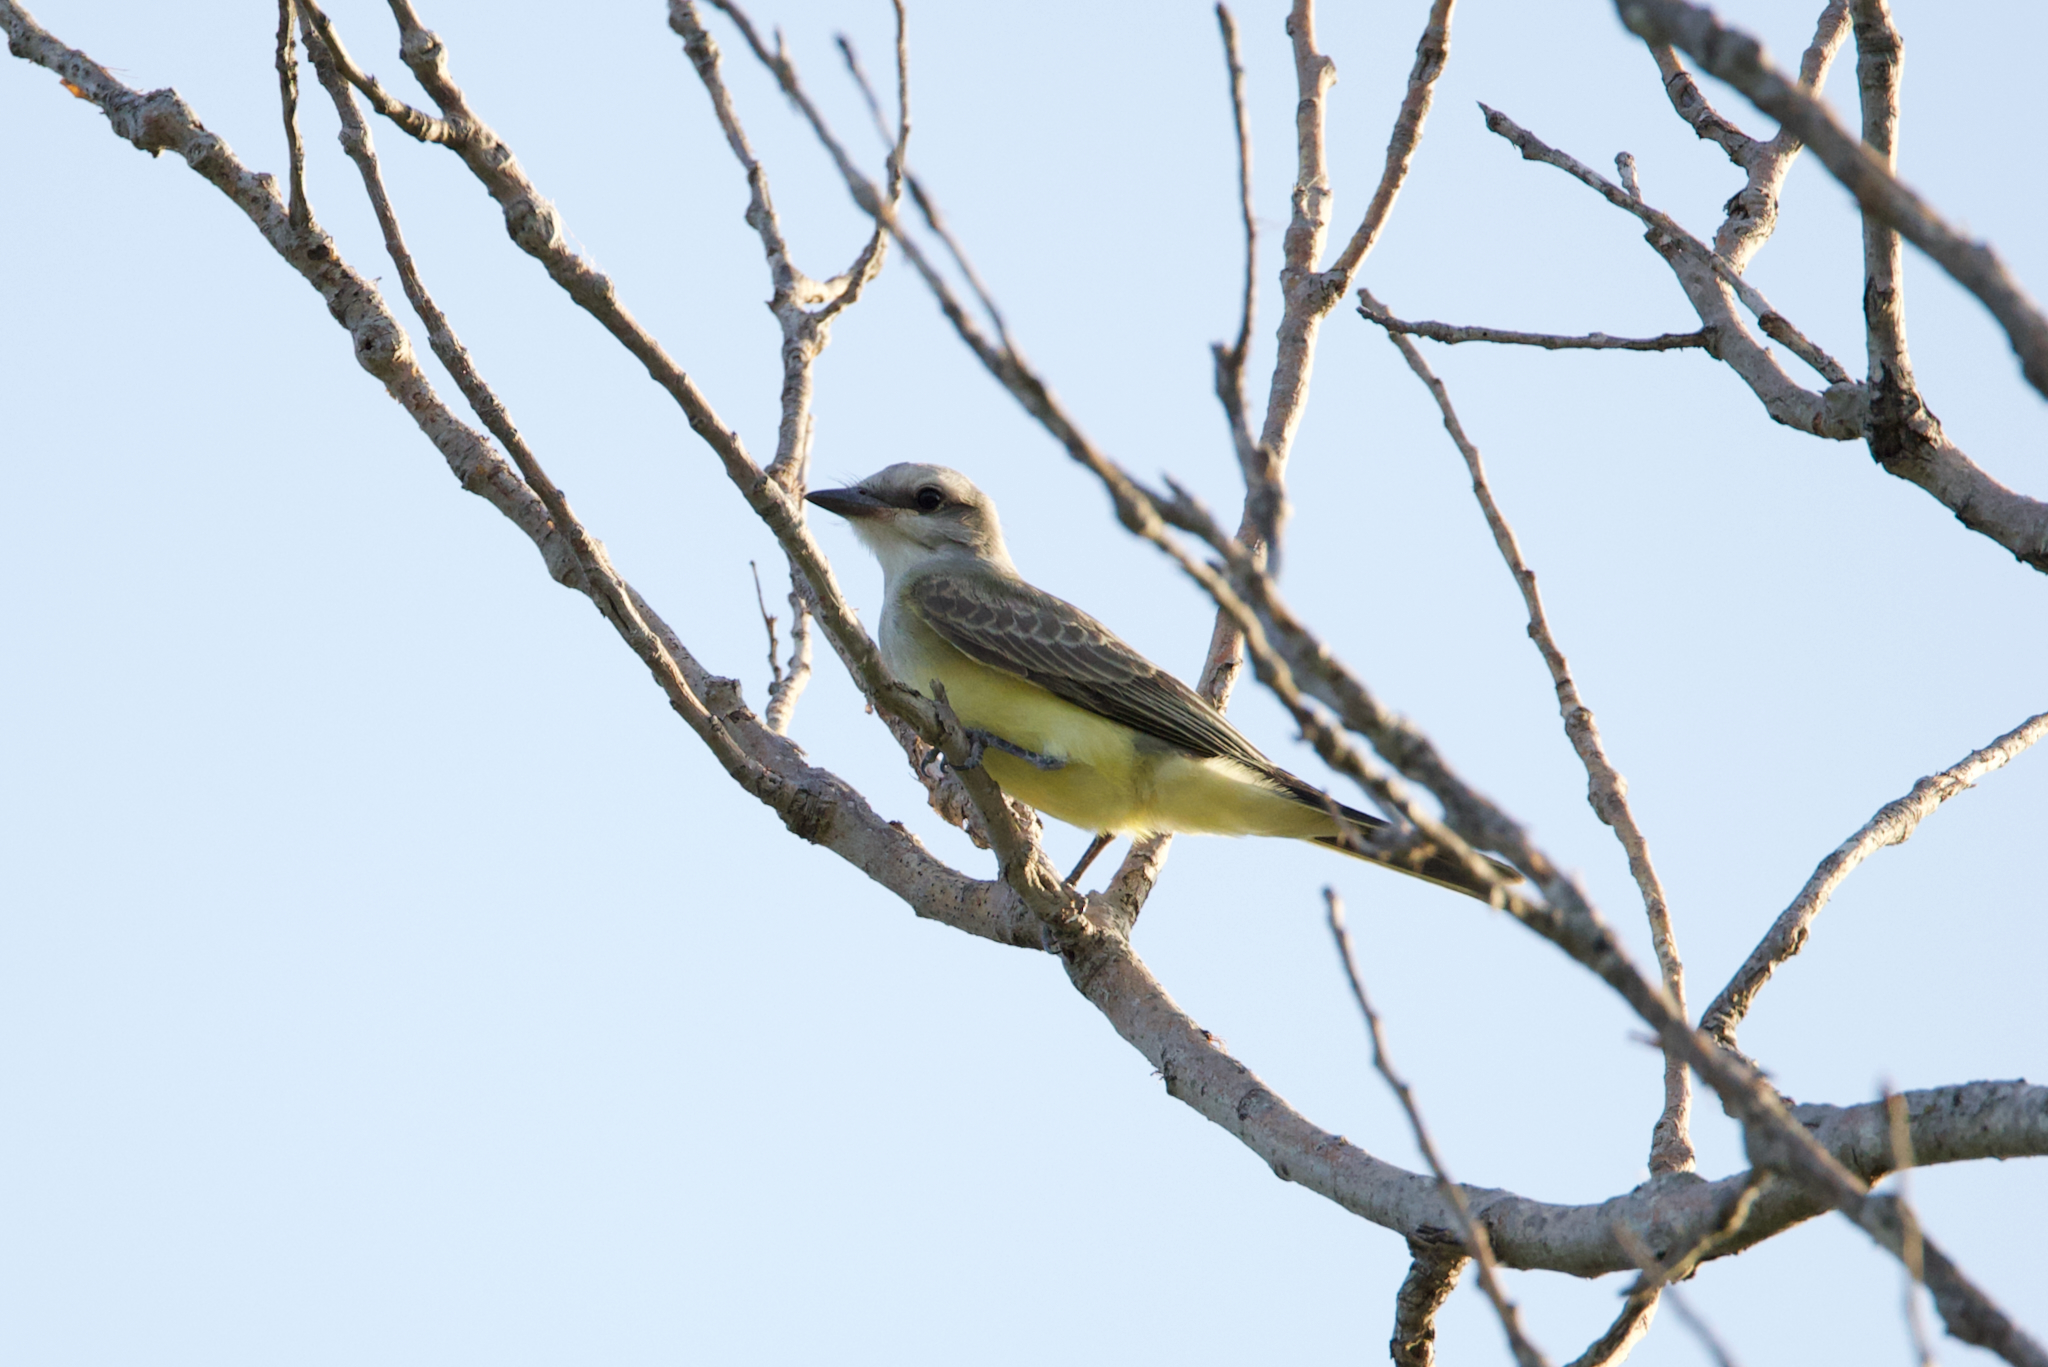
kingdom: Animalia
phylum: Chordata
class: Aves
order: Passeriformes
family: Tyrannidae
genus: Tyrannus
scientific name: Tyrannus verticalis
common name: Western kingbird
